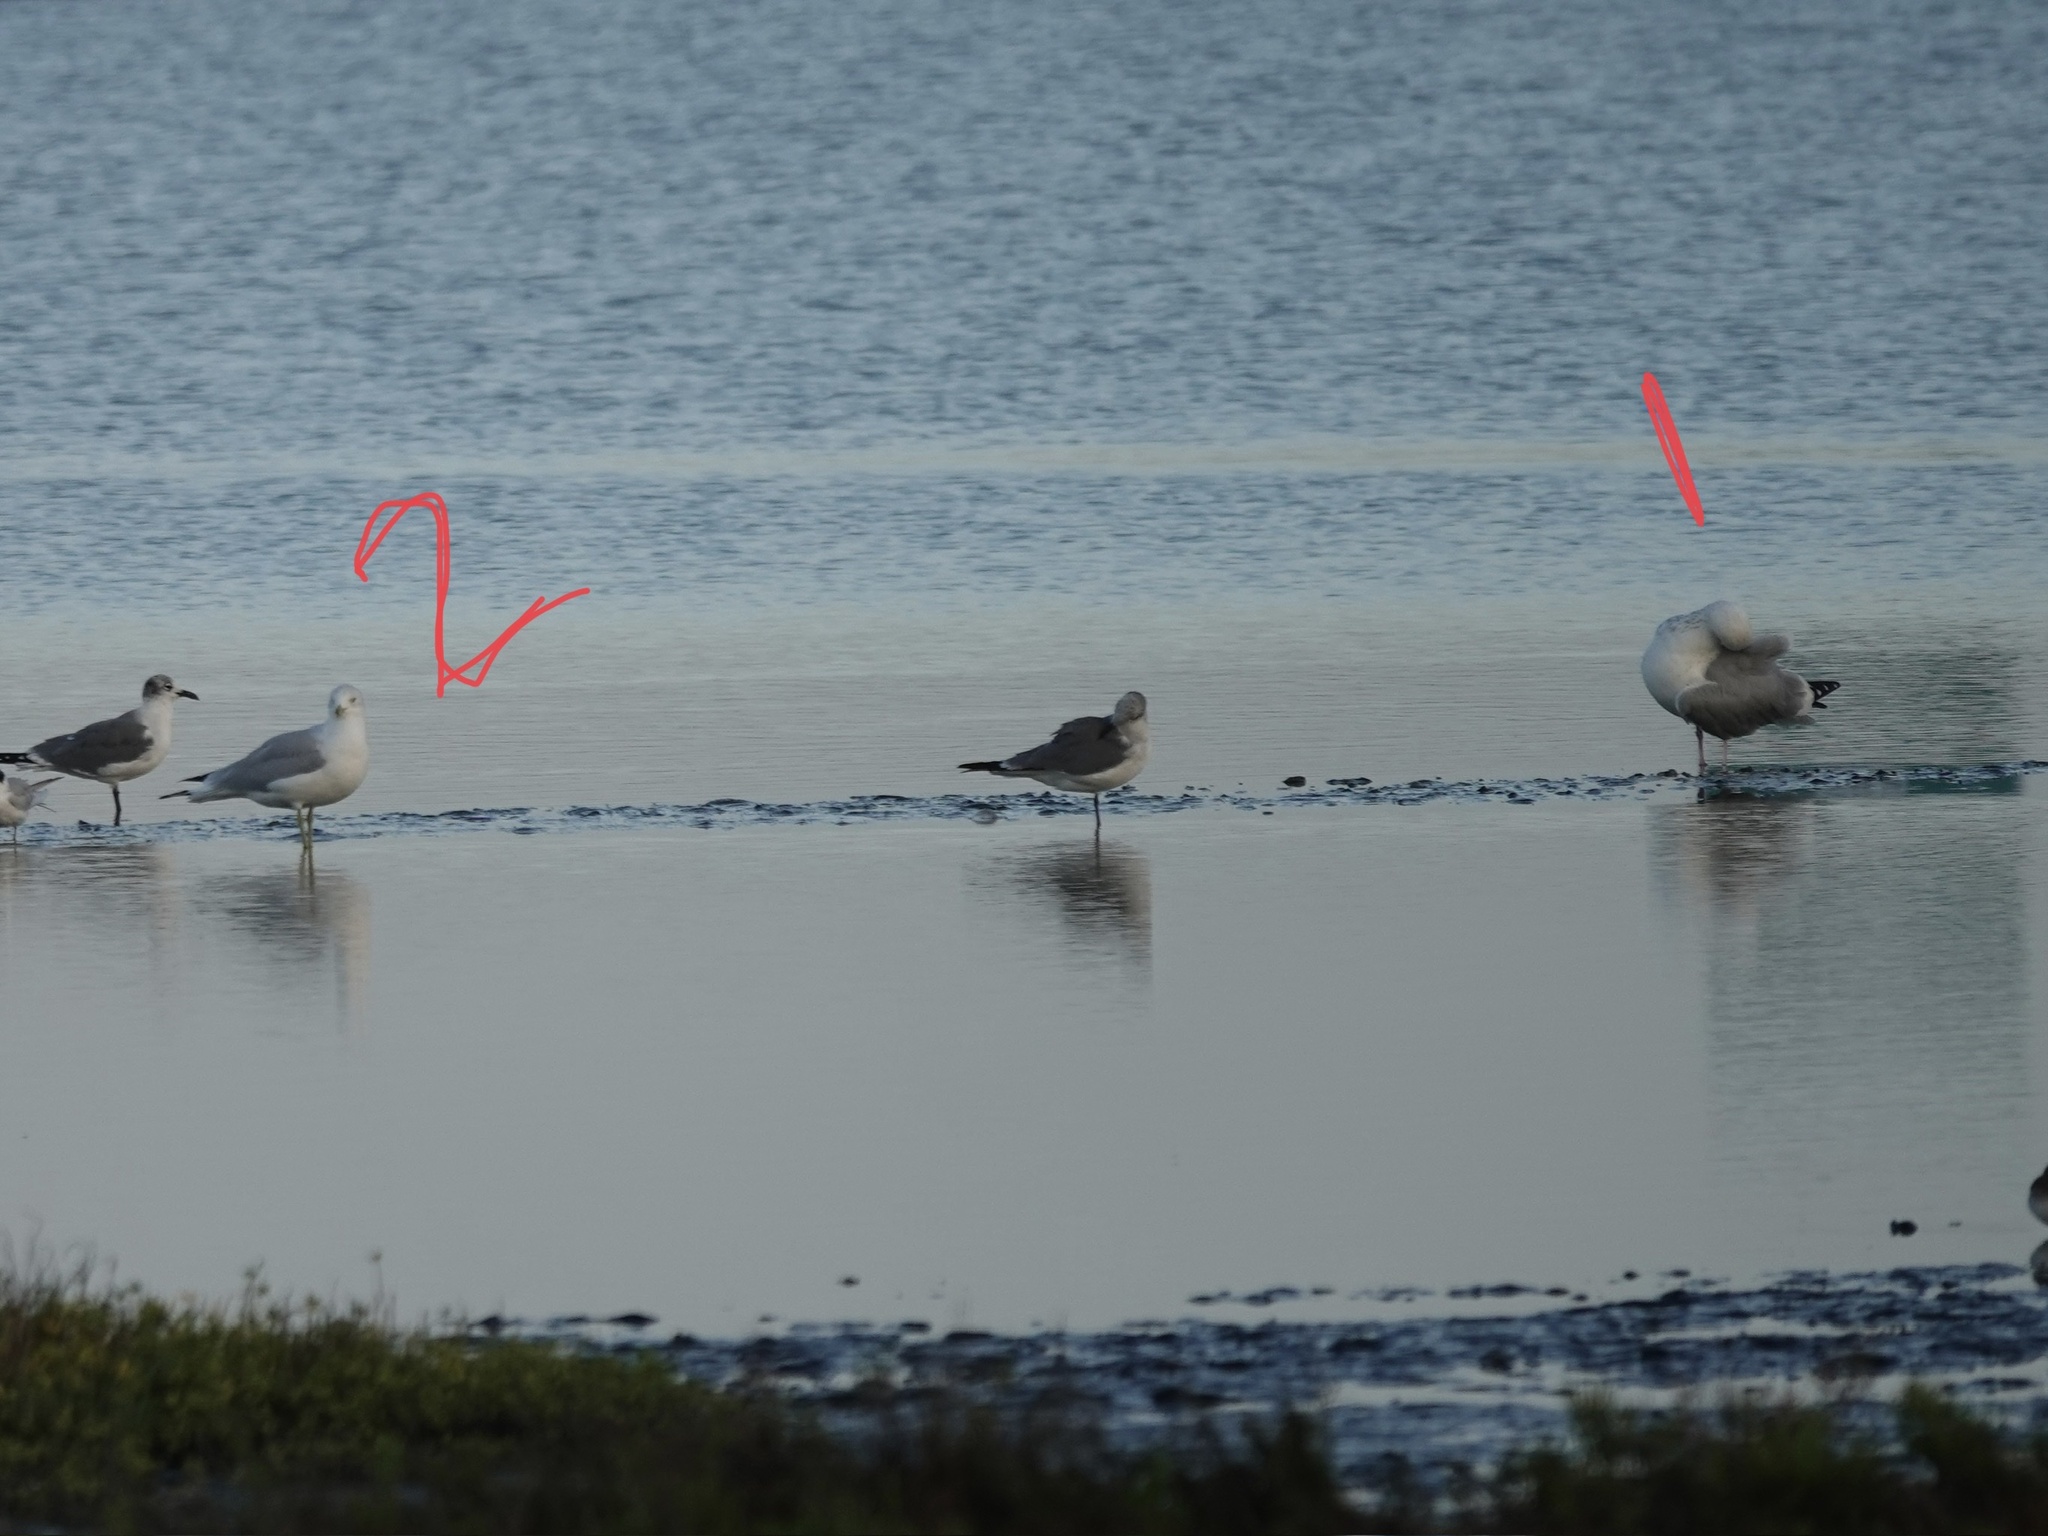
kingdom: Animalia
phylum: Chordata
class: Aves
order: Charadriiformes
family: Laridae
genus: Larus
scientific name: Larus delawarensis
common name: Ring-billed gull
